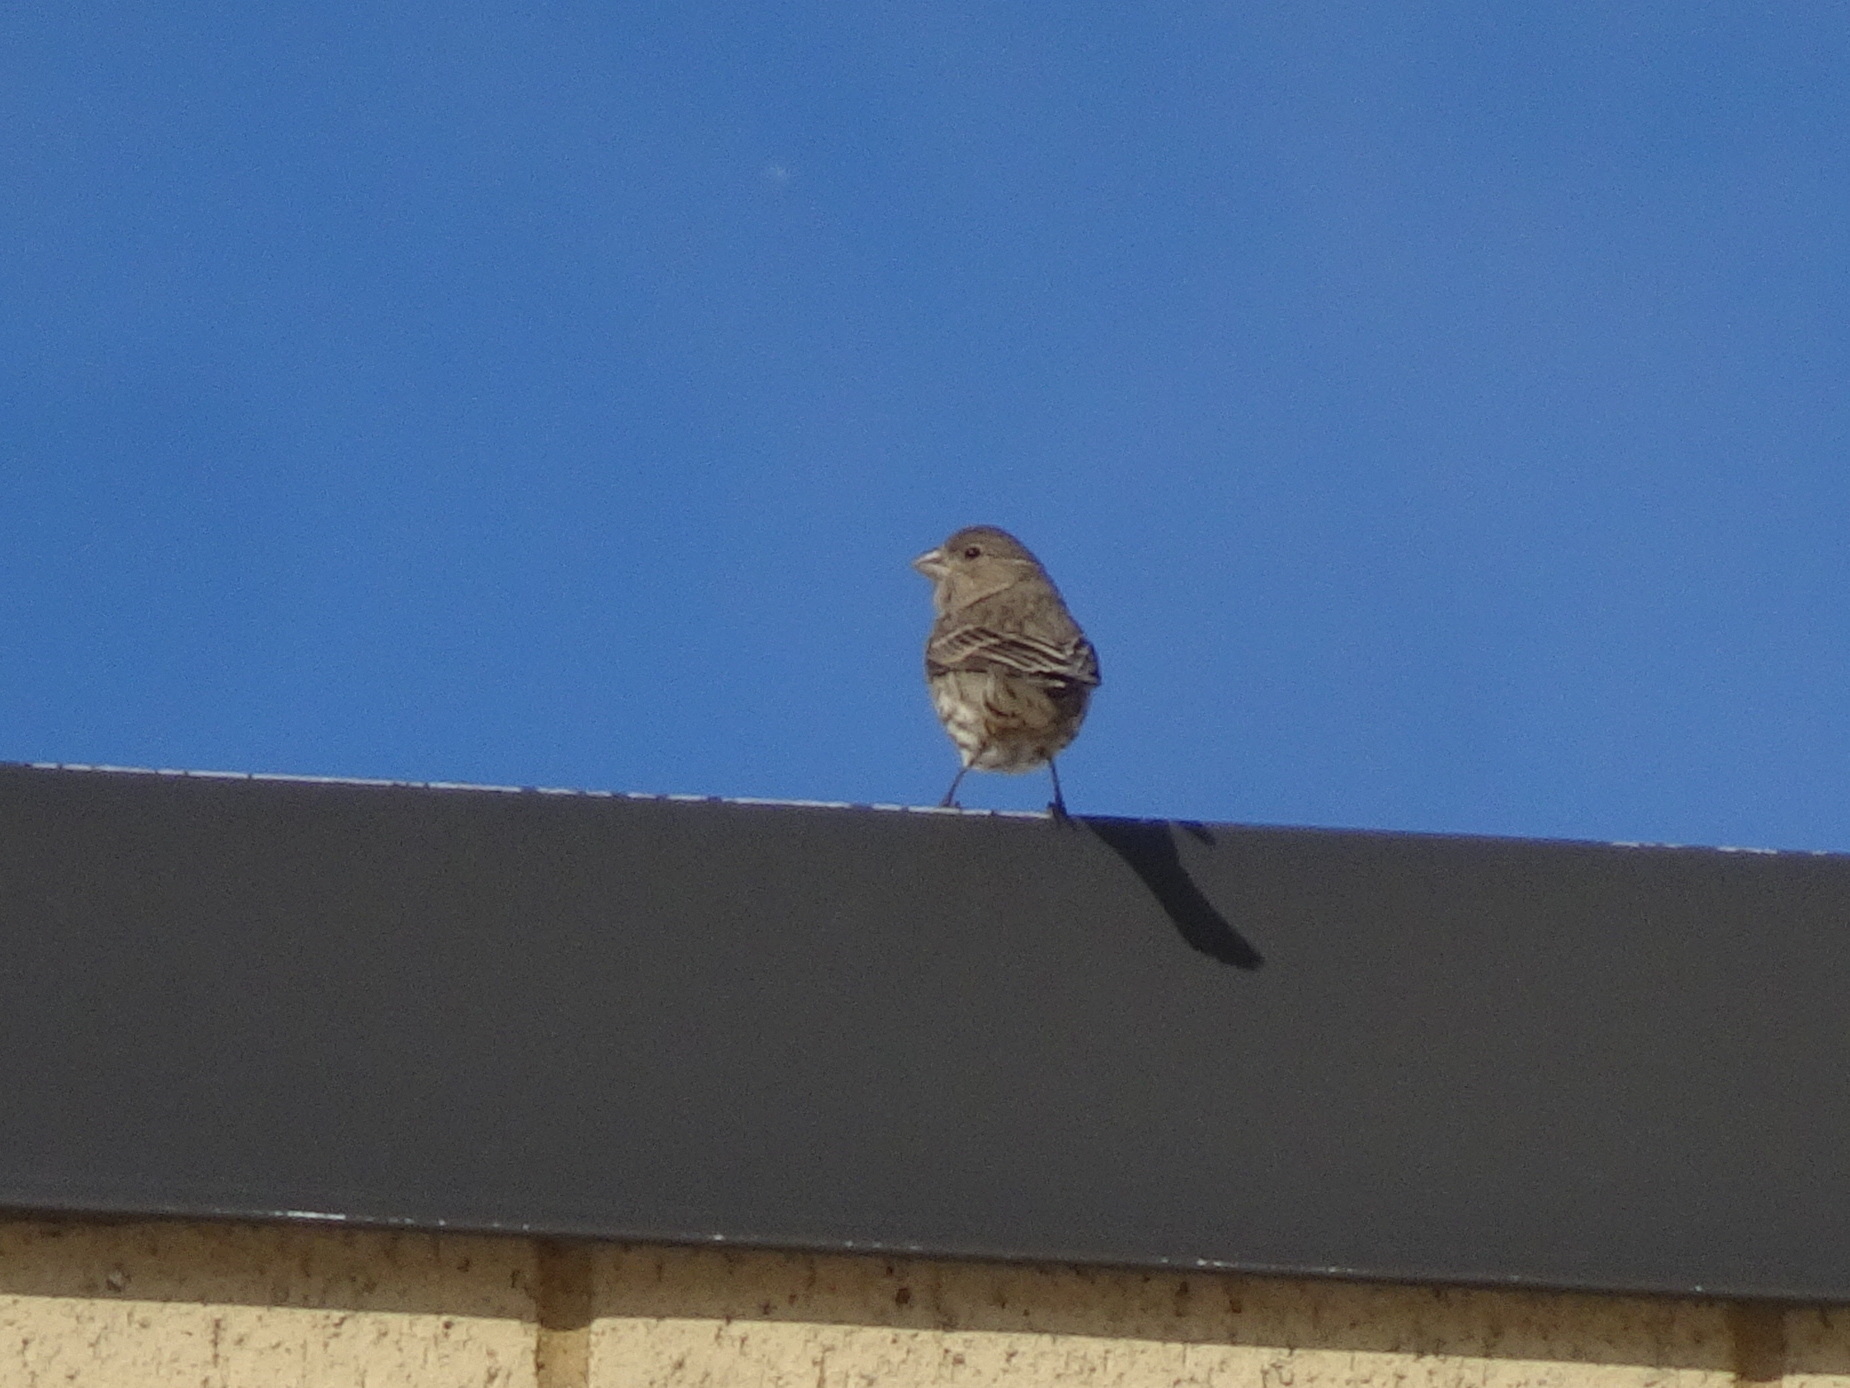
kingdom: Animalia
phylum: Chordata
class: Aves
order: Passeriformes
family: Fringillidae
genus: Haemorhous
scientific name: Haemorhous mexicanus
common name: House finch
